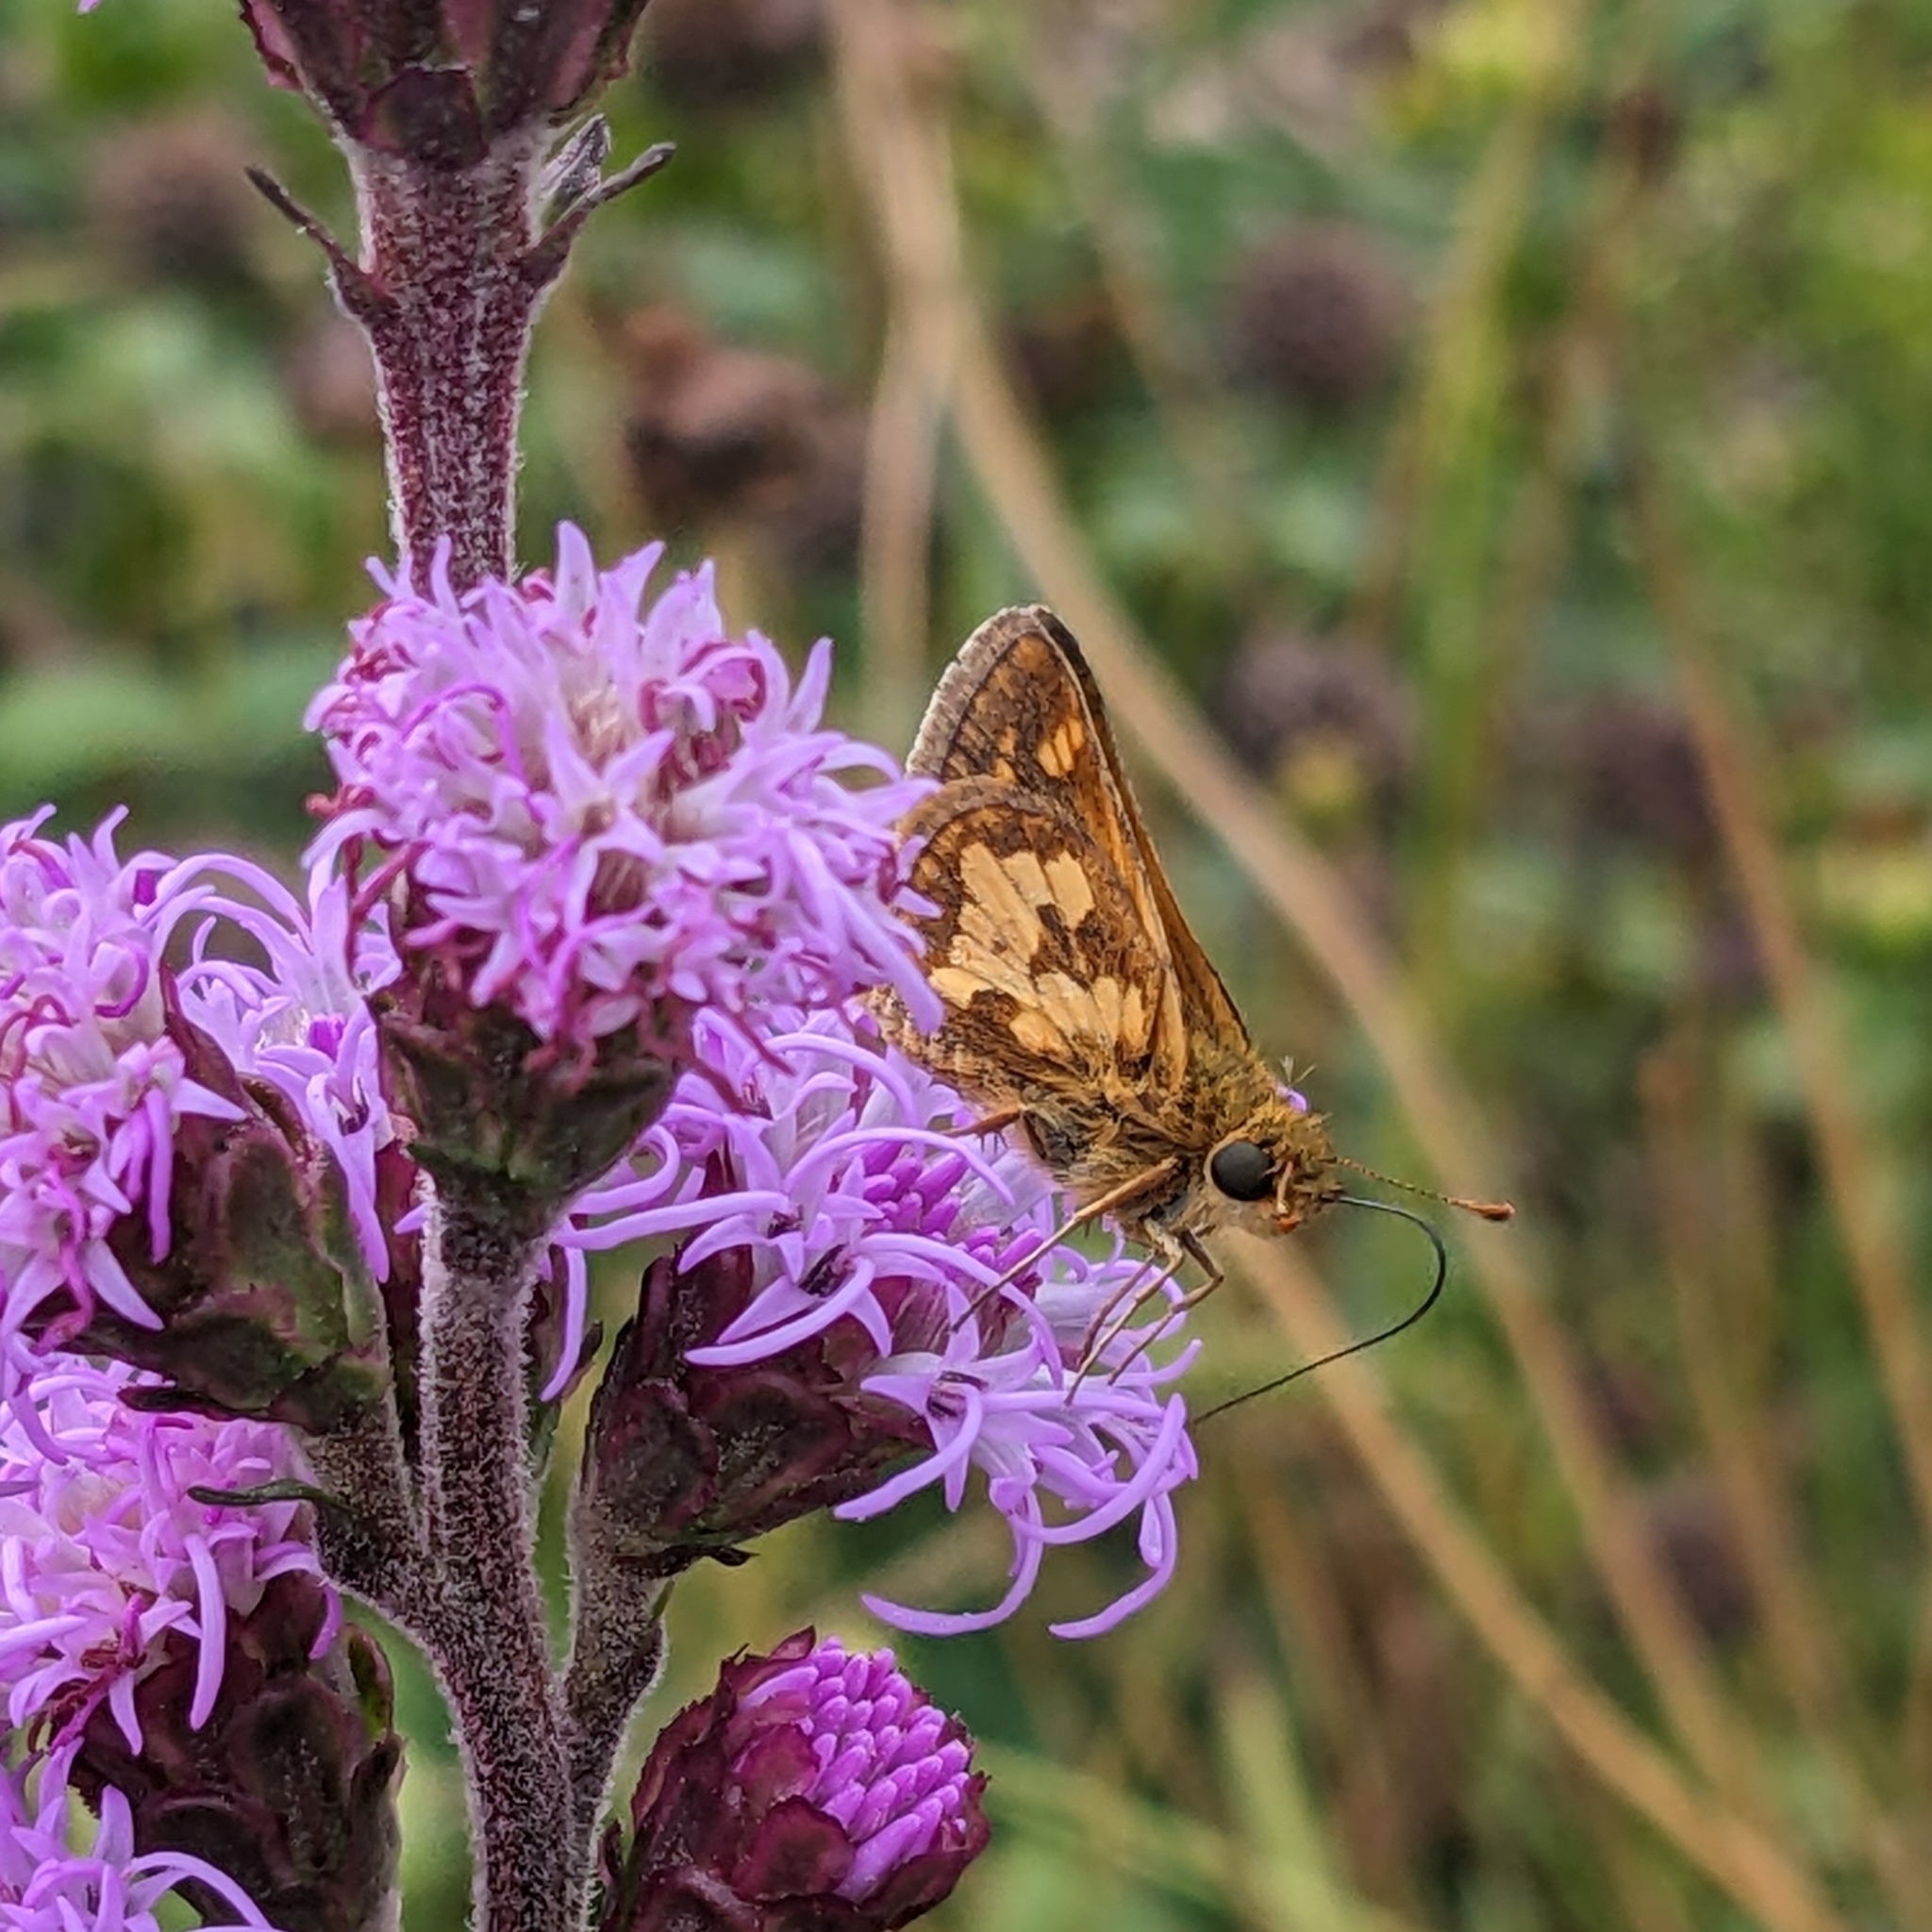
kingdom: Animalia
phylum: Arthropoda
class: Insecta
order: Lepidoptera
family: Hesperiidae
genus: Polites
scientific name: Polites coras
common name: Peck's skipper
